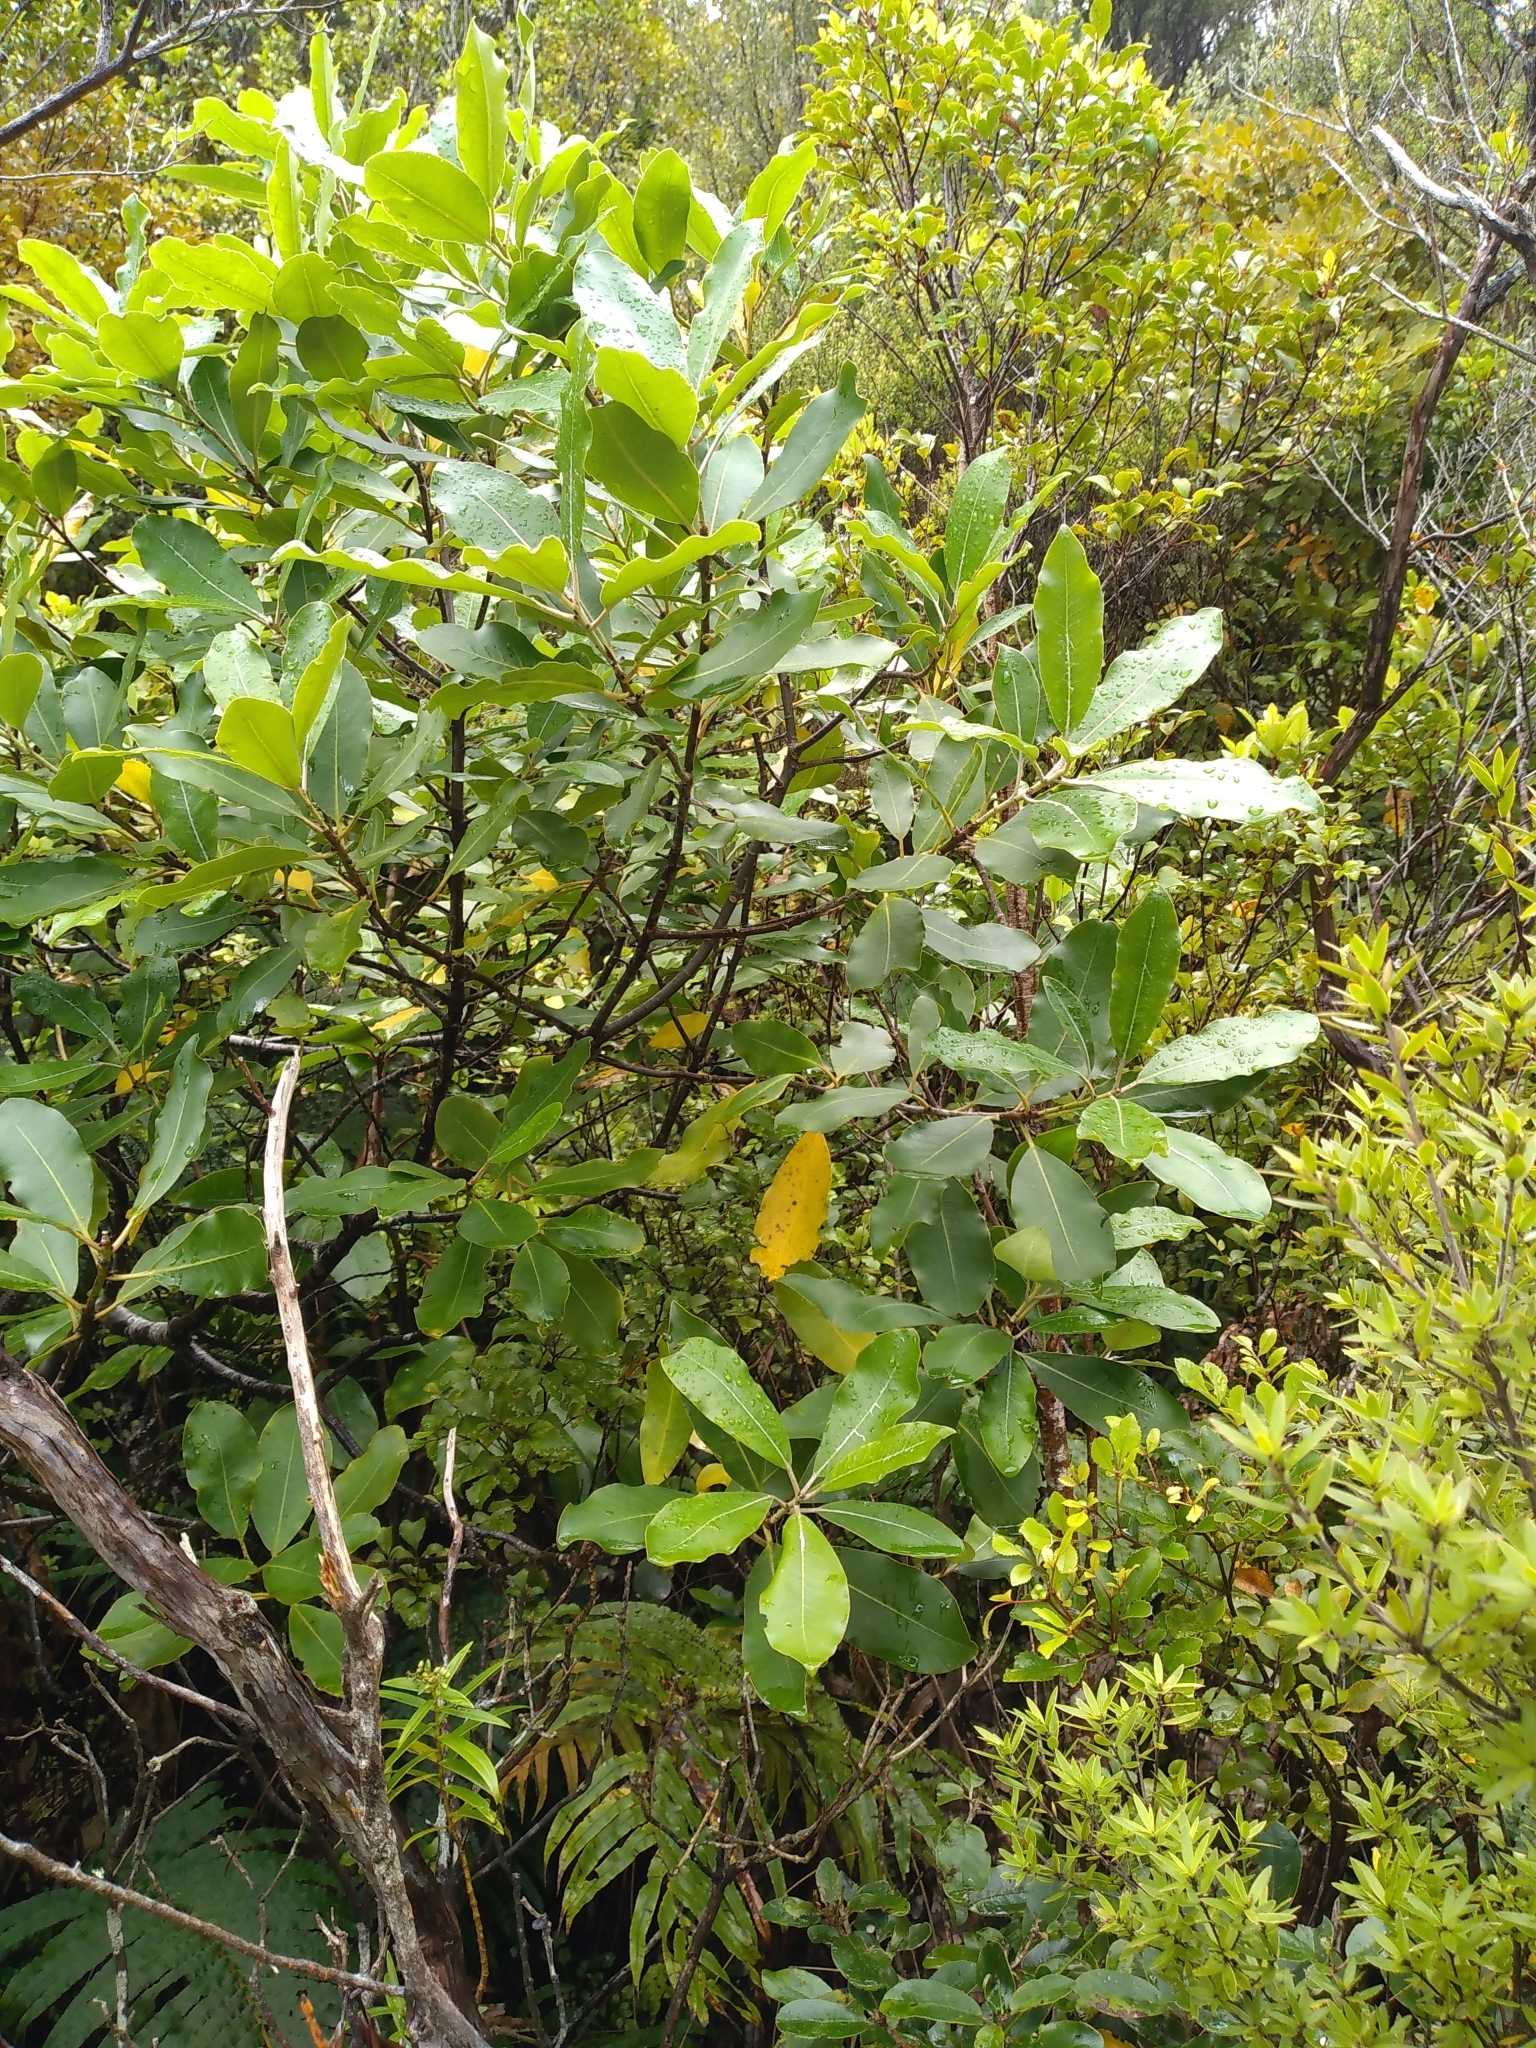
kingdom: Plantae
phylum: Tracheophyta
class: Magnoliopsida
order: Apiales
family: Pittosporaceae
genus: Pittosporum
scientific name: Pittosporum huttonianum
